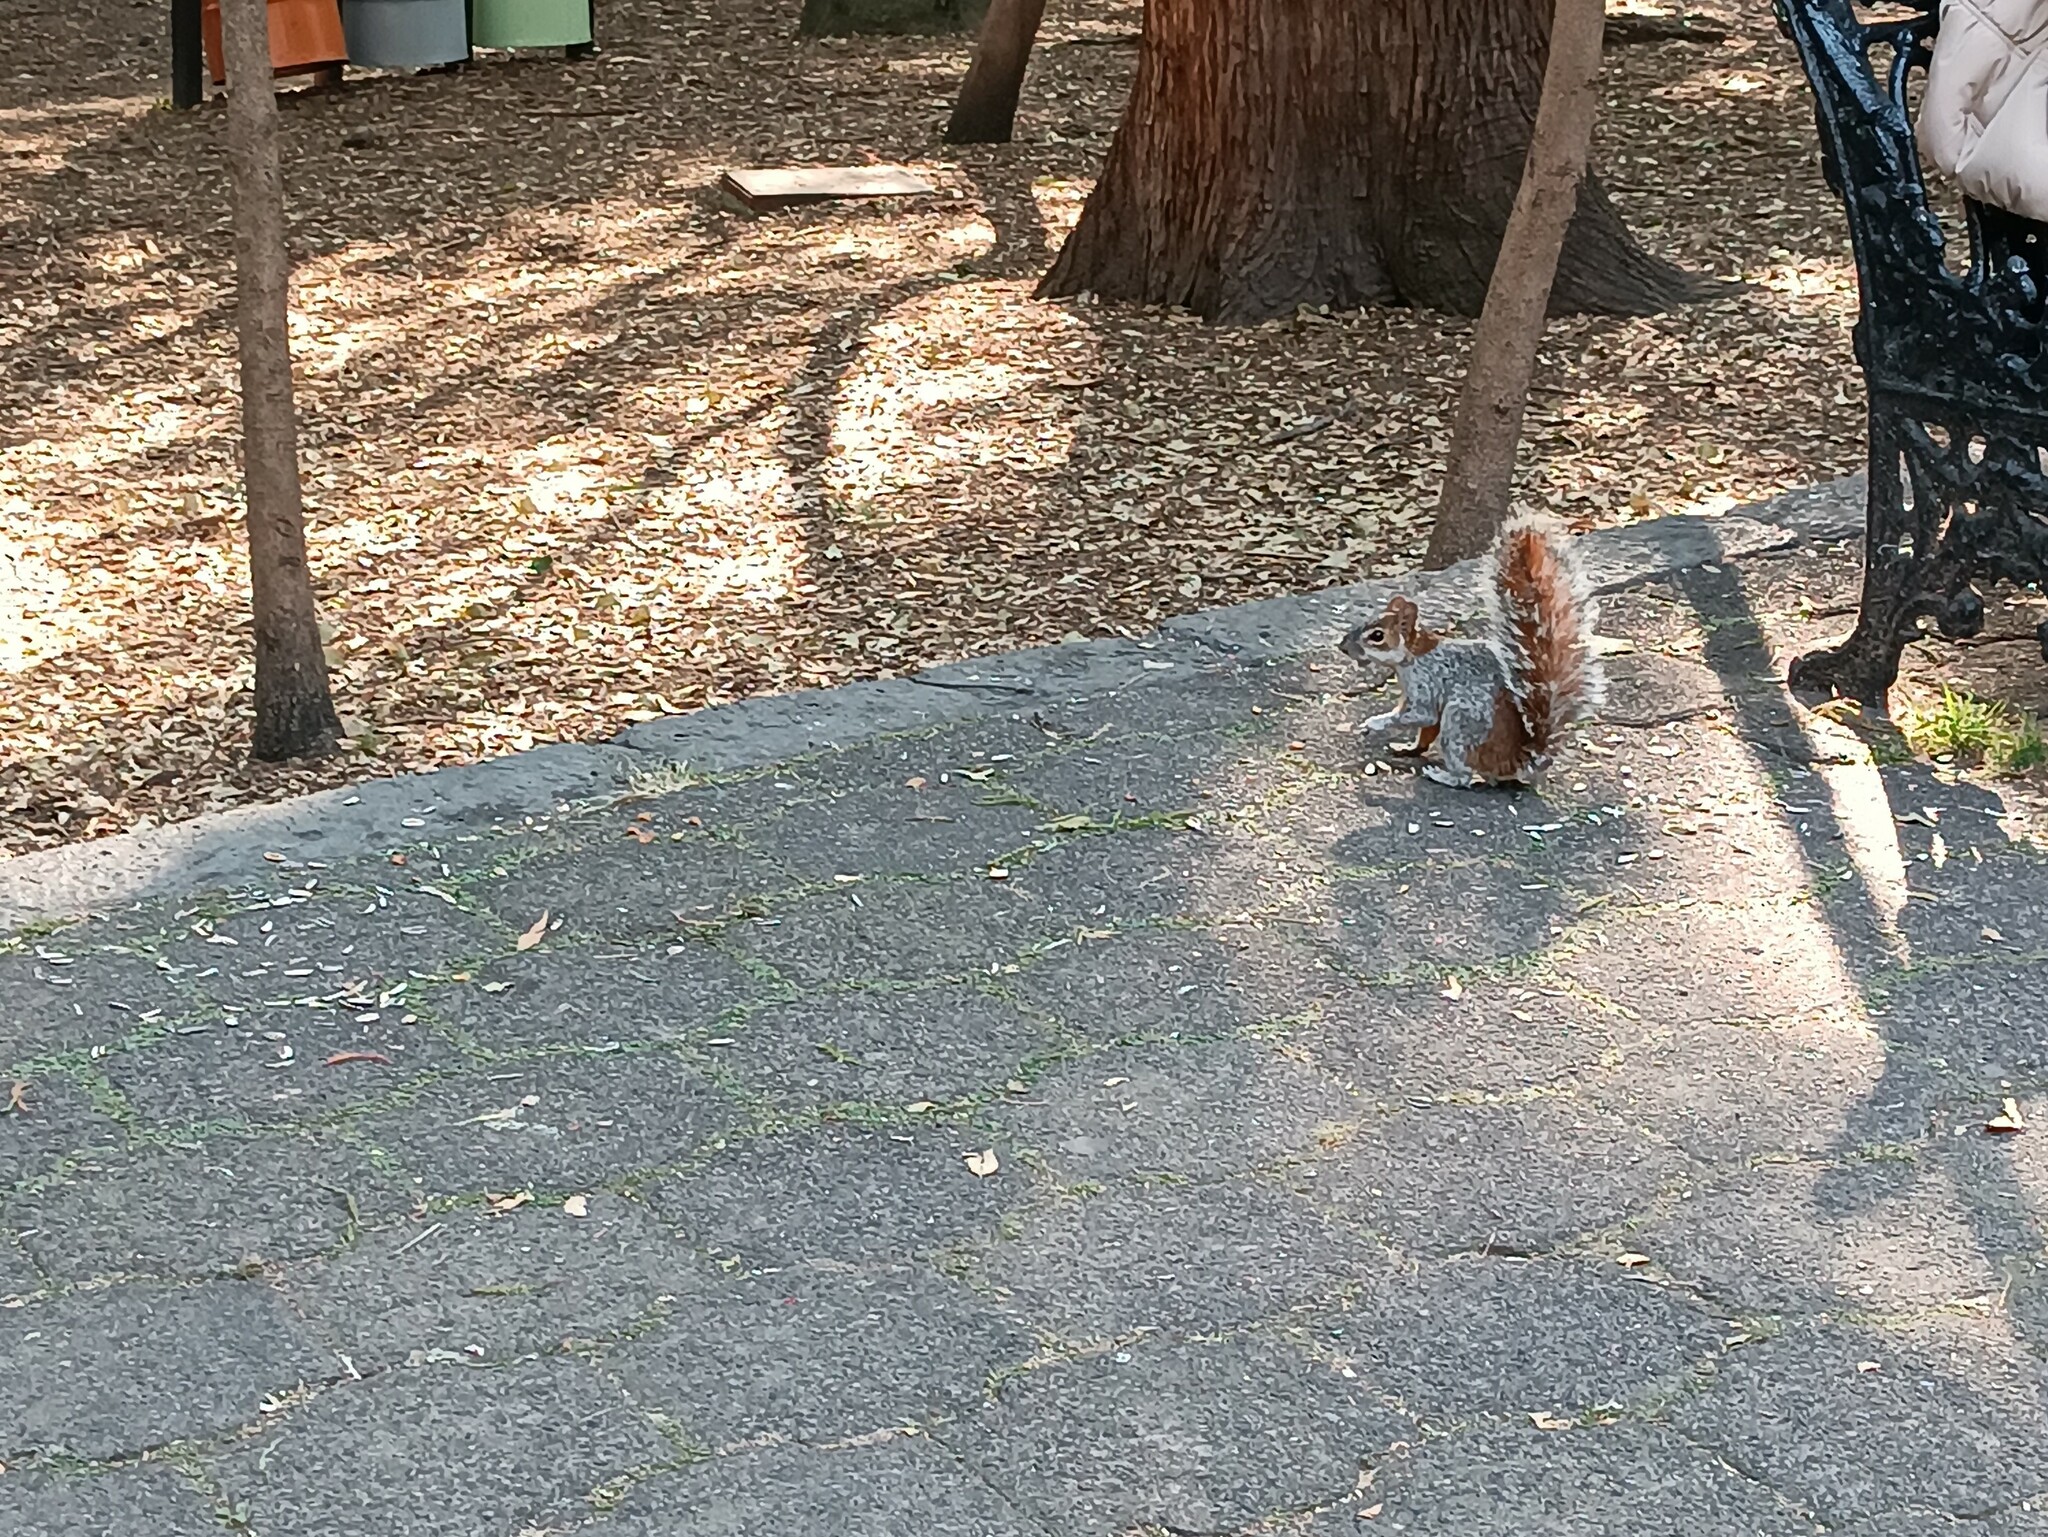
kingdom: Animalia
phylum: Chordata
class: Mammalia
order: Rodentia
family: Sciuridae
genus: Sciurus
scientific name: Sciurus aureogaster
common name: Red-bellied squirrel
